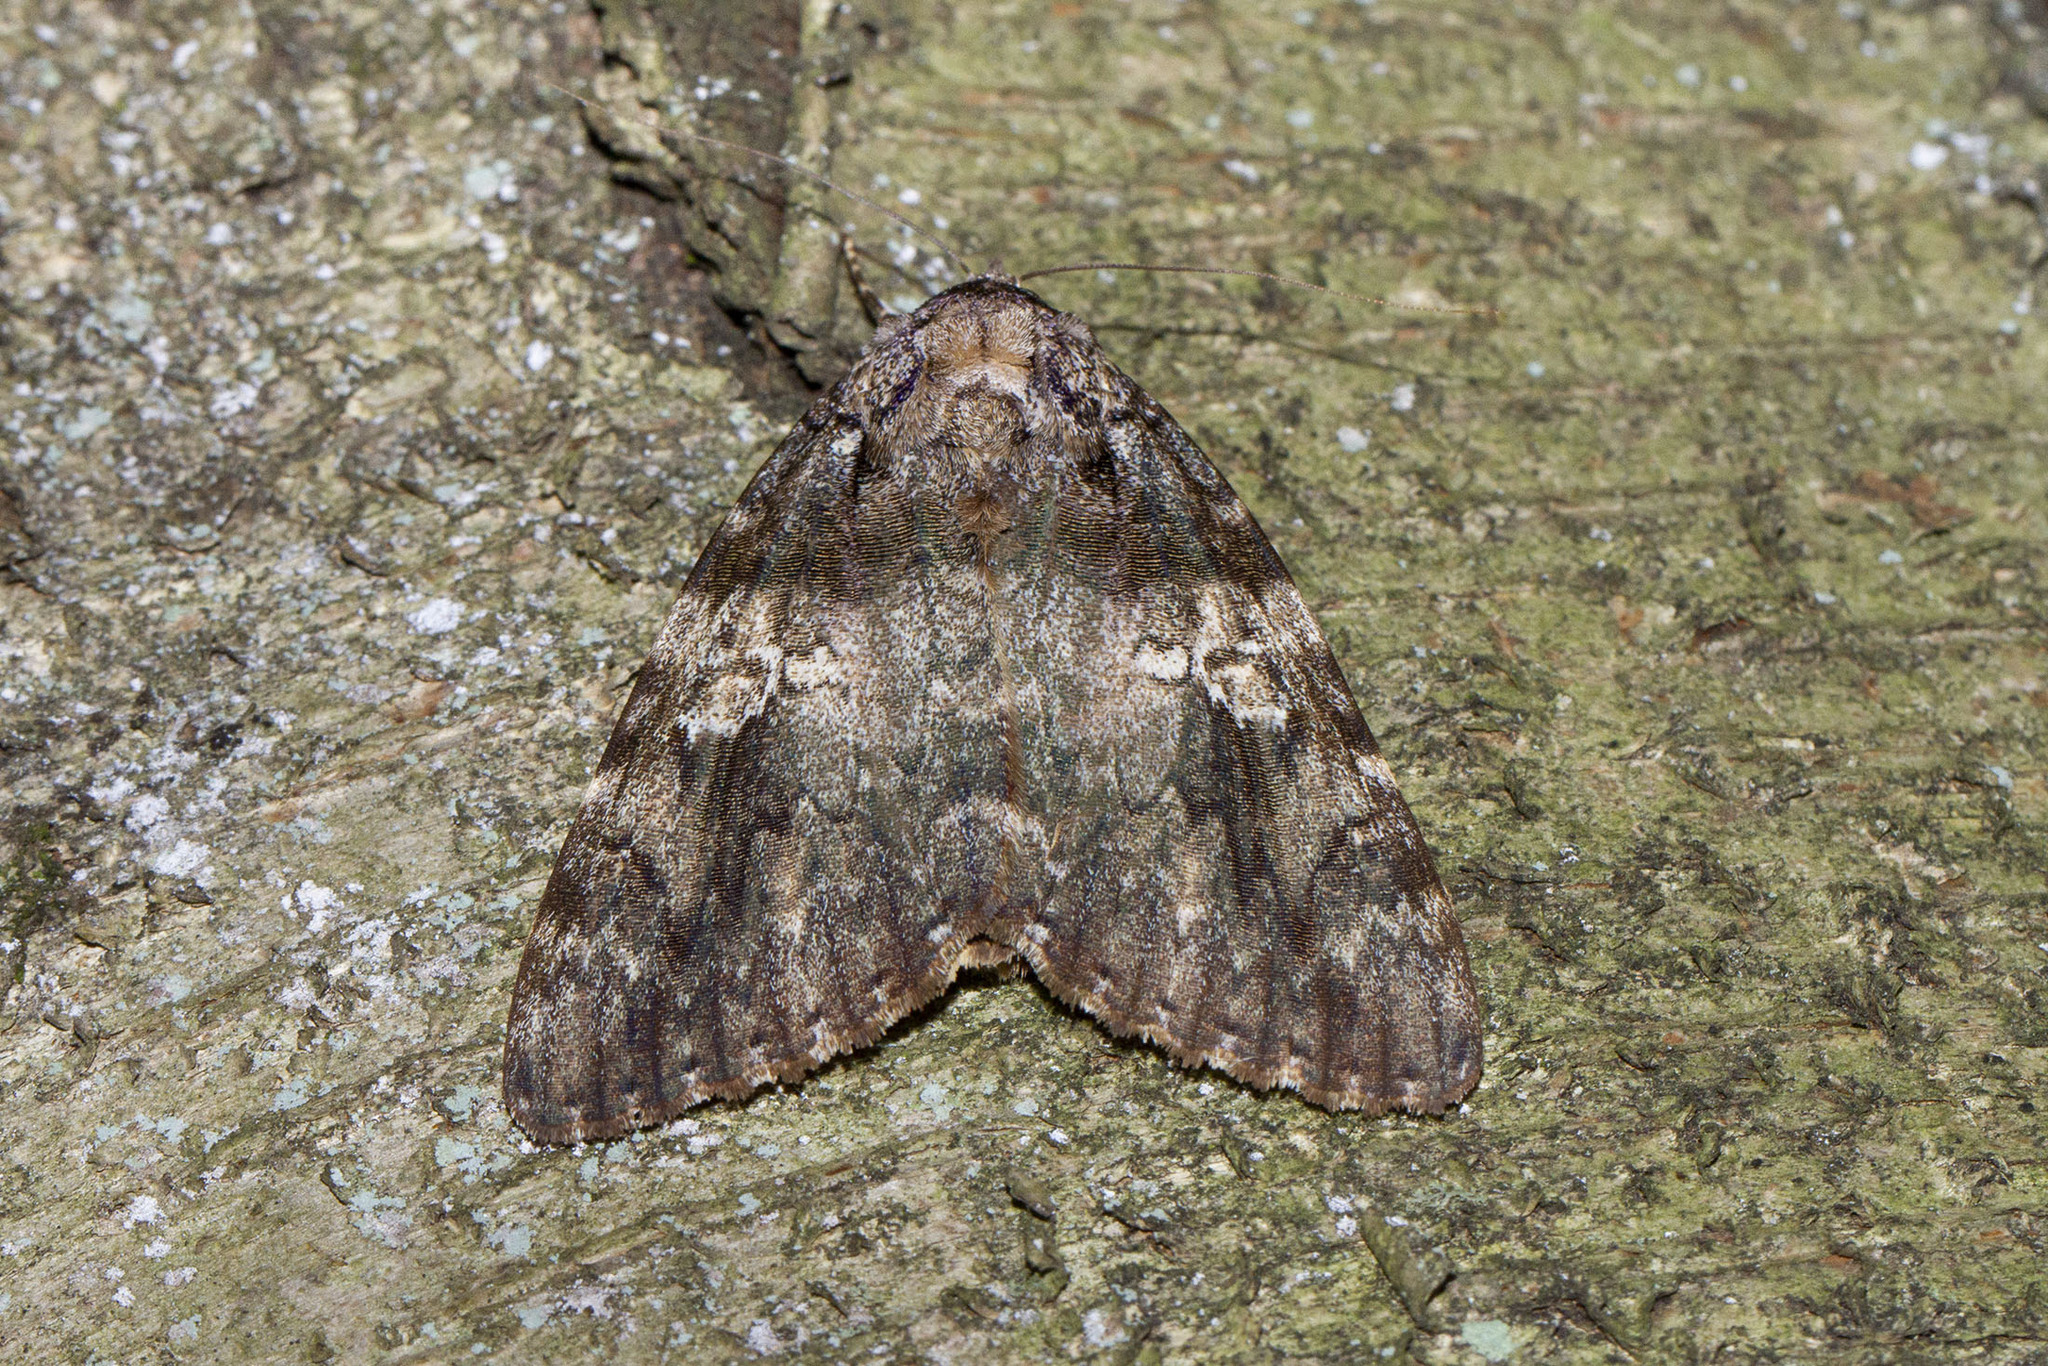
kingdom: Animalia
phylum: Arthropoda
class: Insecta
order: Lepidoptera
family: Erebidae
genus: Catocala
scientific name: Catocala ilia
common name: Ilia underwing
